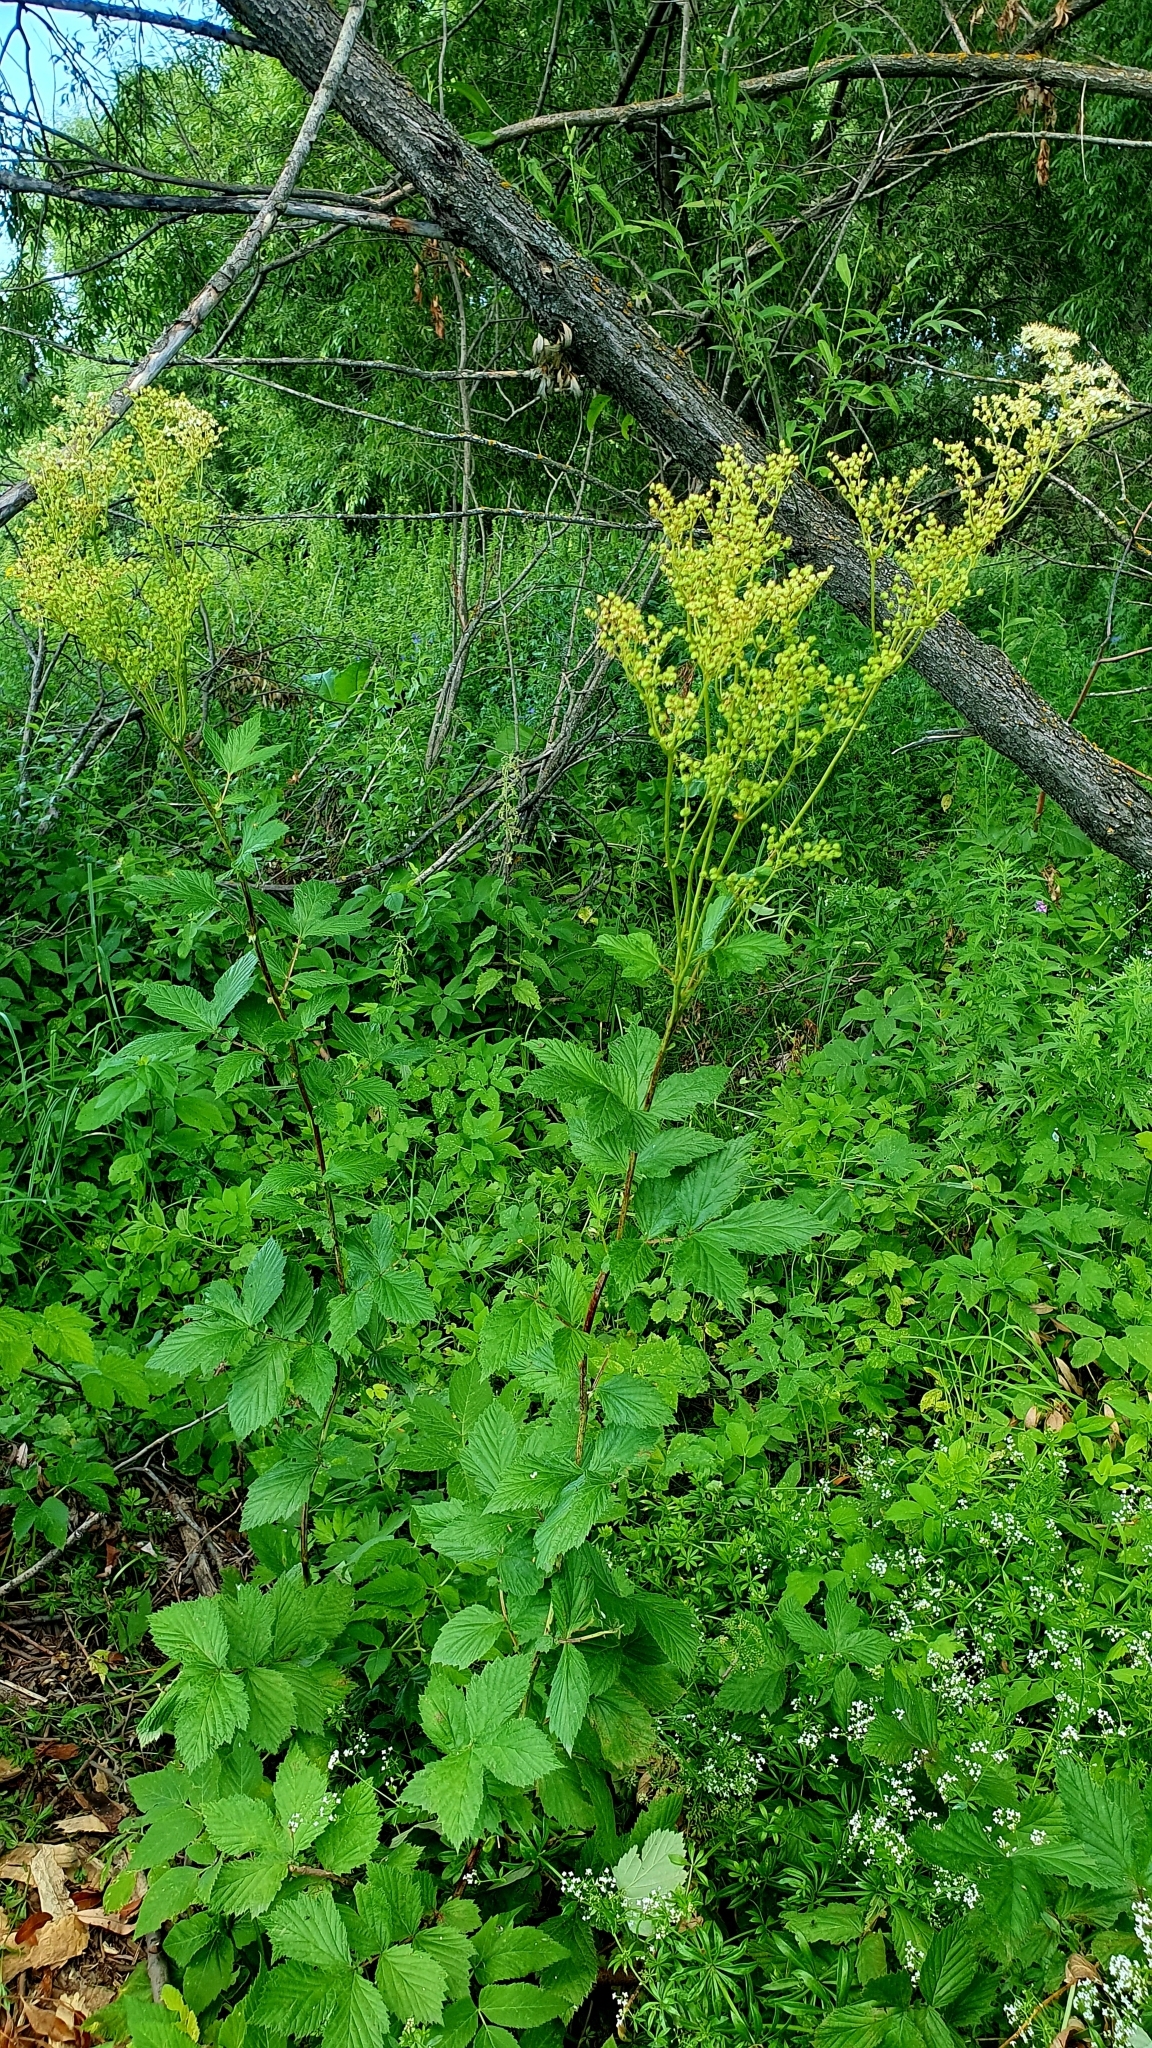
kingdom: Plantae
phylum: Tracheophyta
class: Magnoliopsida
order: Rosales
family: Rosaceae
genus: Filipendula
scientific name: Filipendula ulmaria
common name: Meadowsweet
